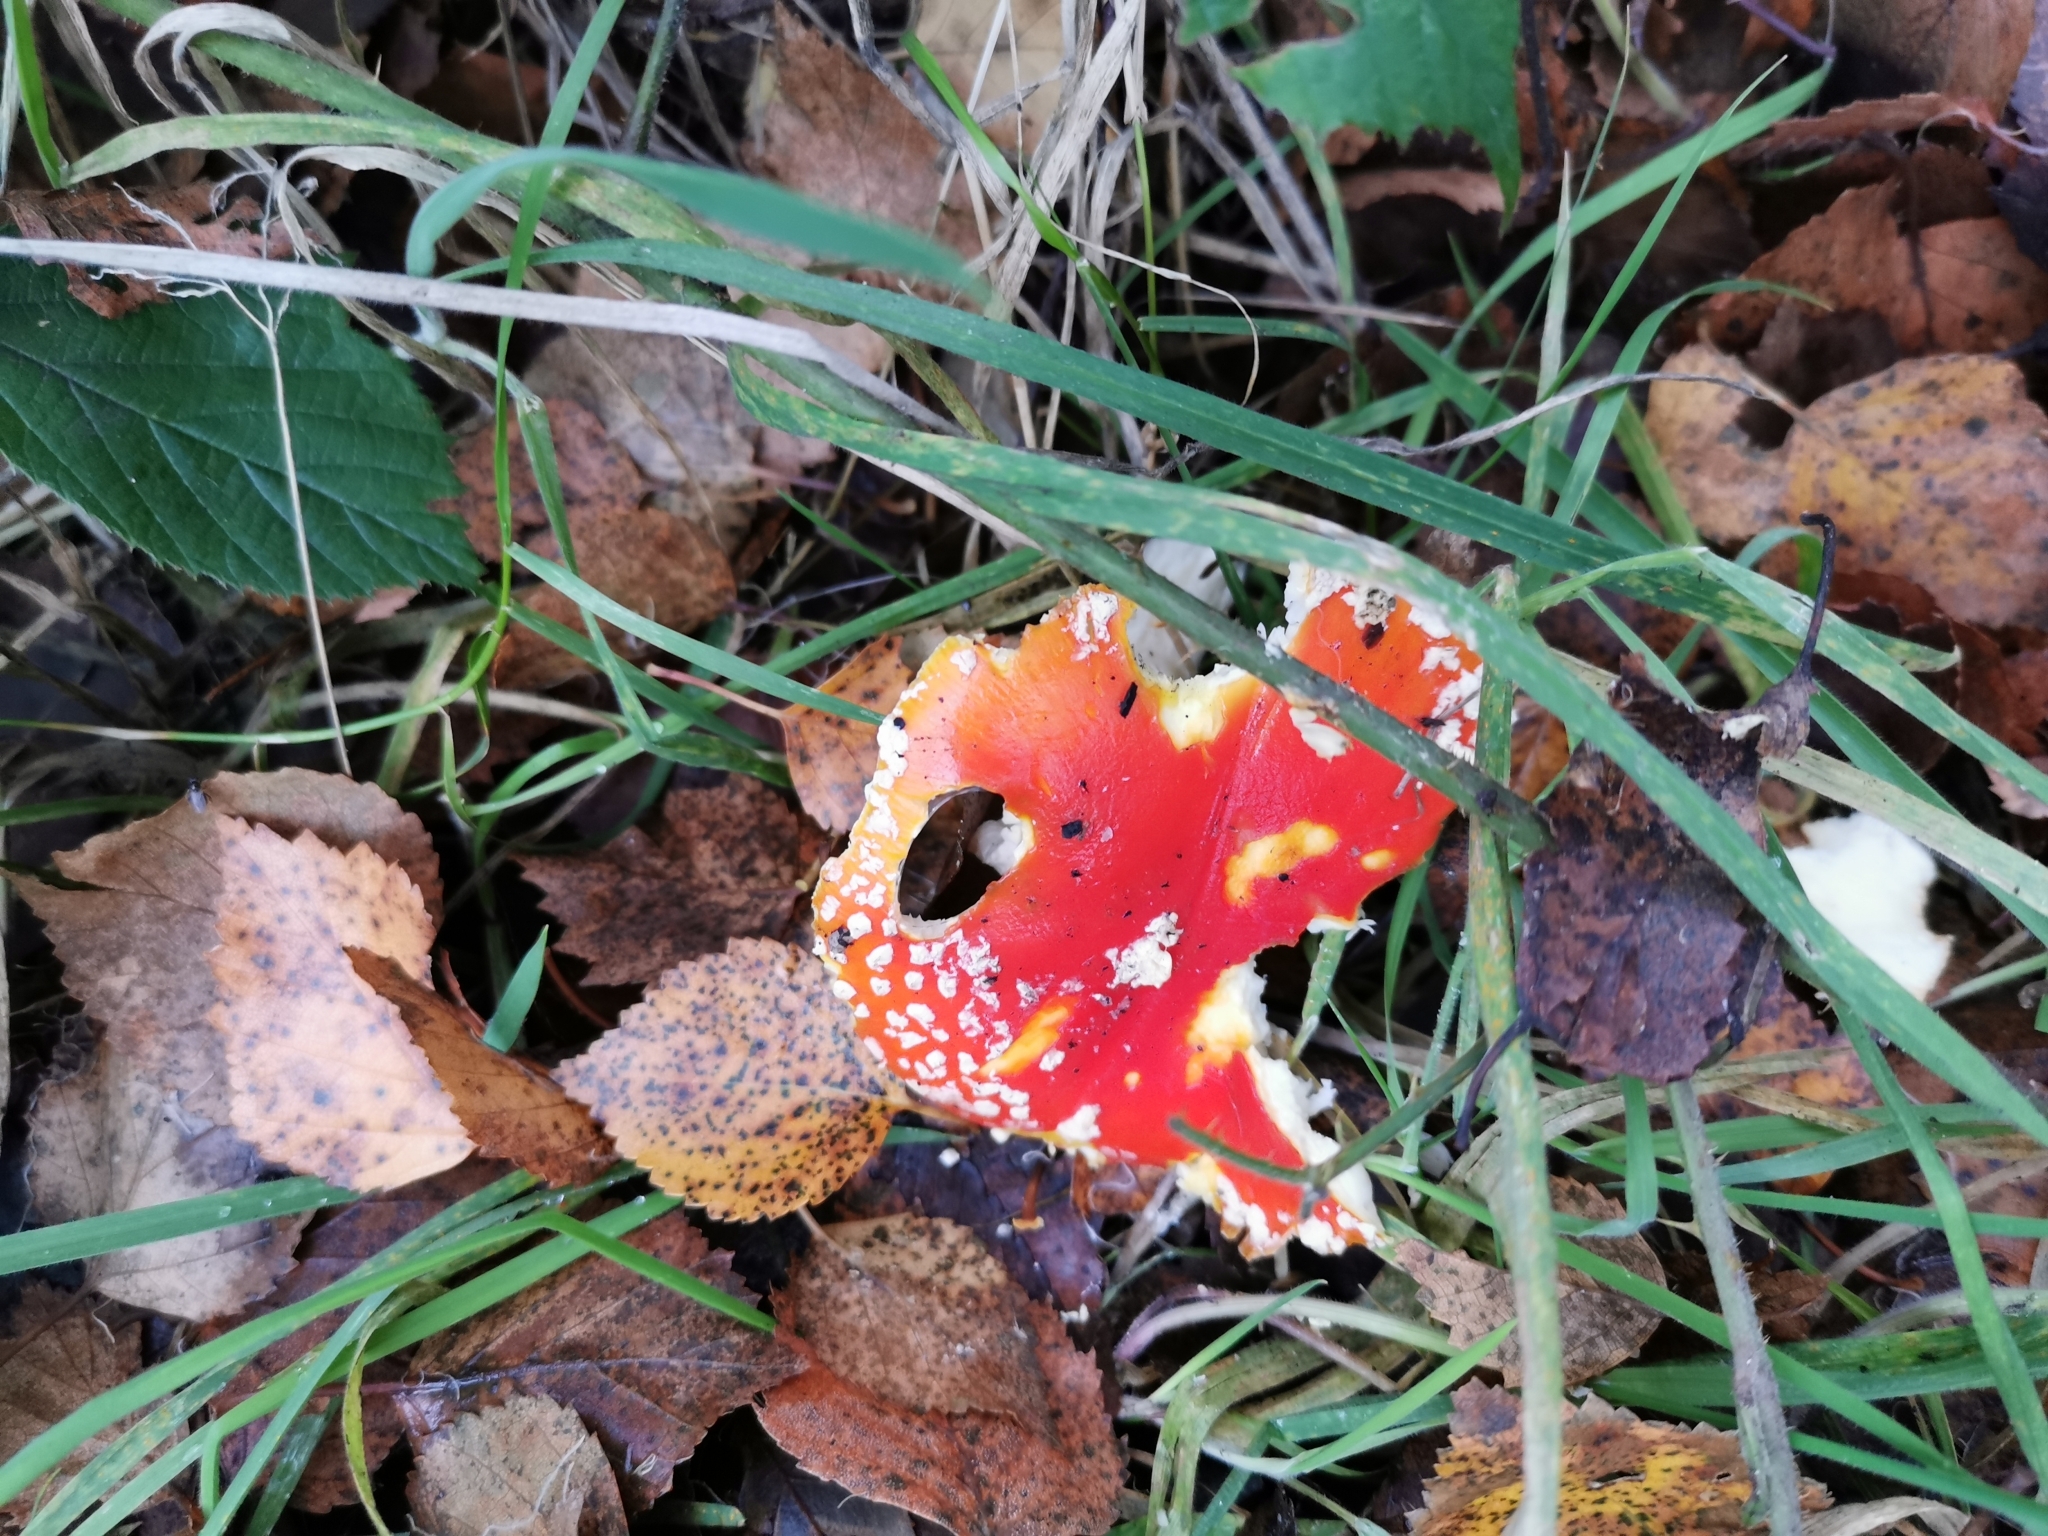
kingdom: Fungi
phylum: Basidiomycota
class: Agaricomycetes
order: Agaricales
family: Amanitaceae
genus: Amanita
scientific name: Amanita muscaria
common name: Fly agaric
